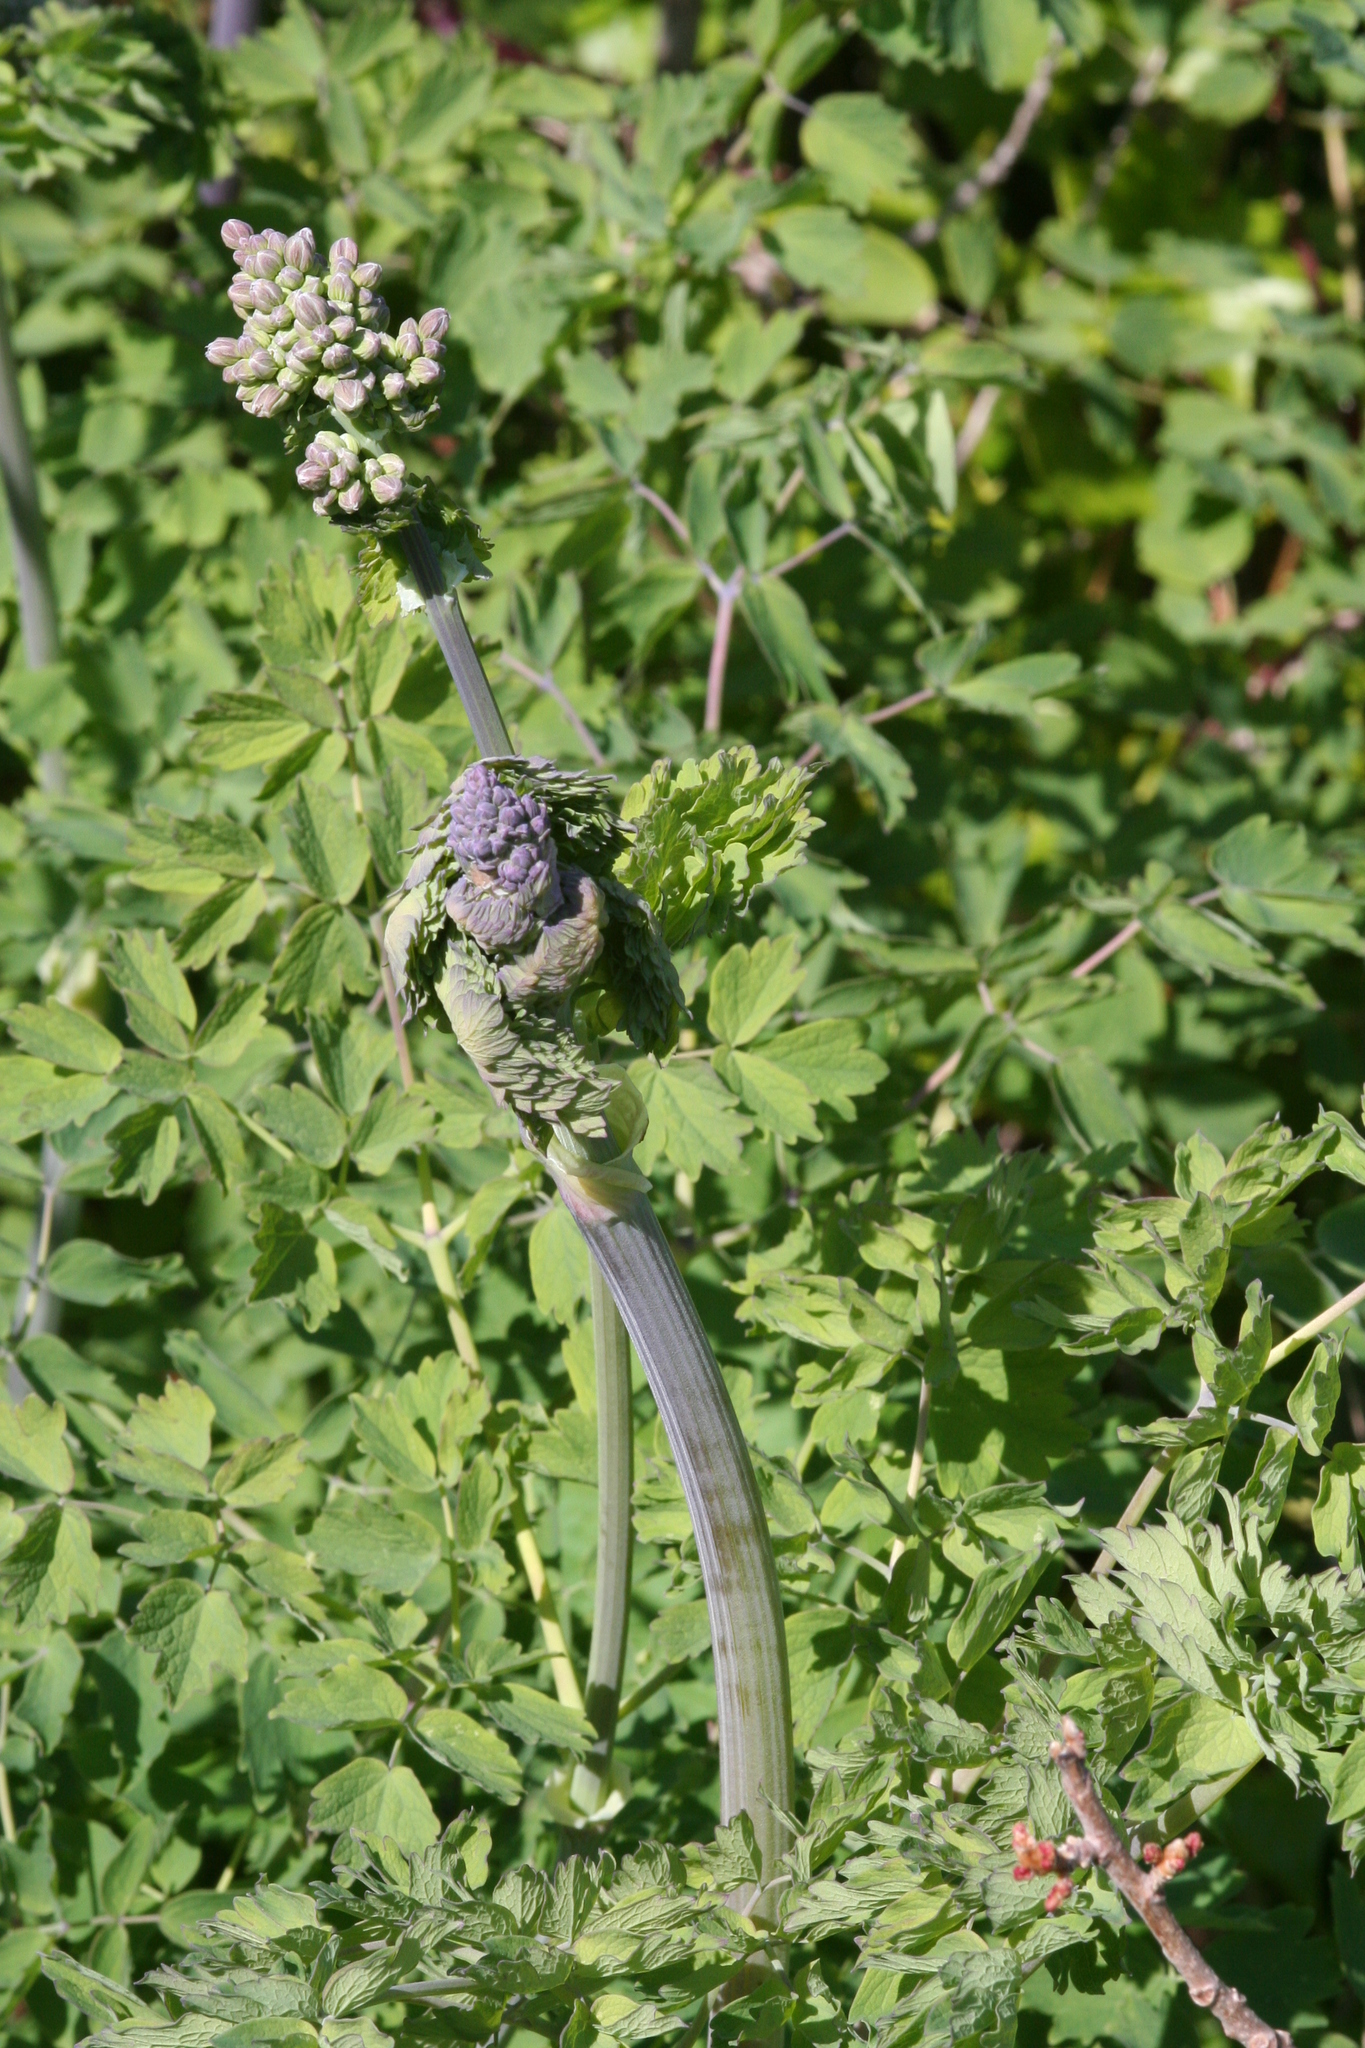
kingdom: Plantae
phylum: Tracheophyta
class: Magnoliopsida
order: Ranunculales
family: Ranunculaceae
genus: Thalictrum
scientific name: Thalictrum fendleri
